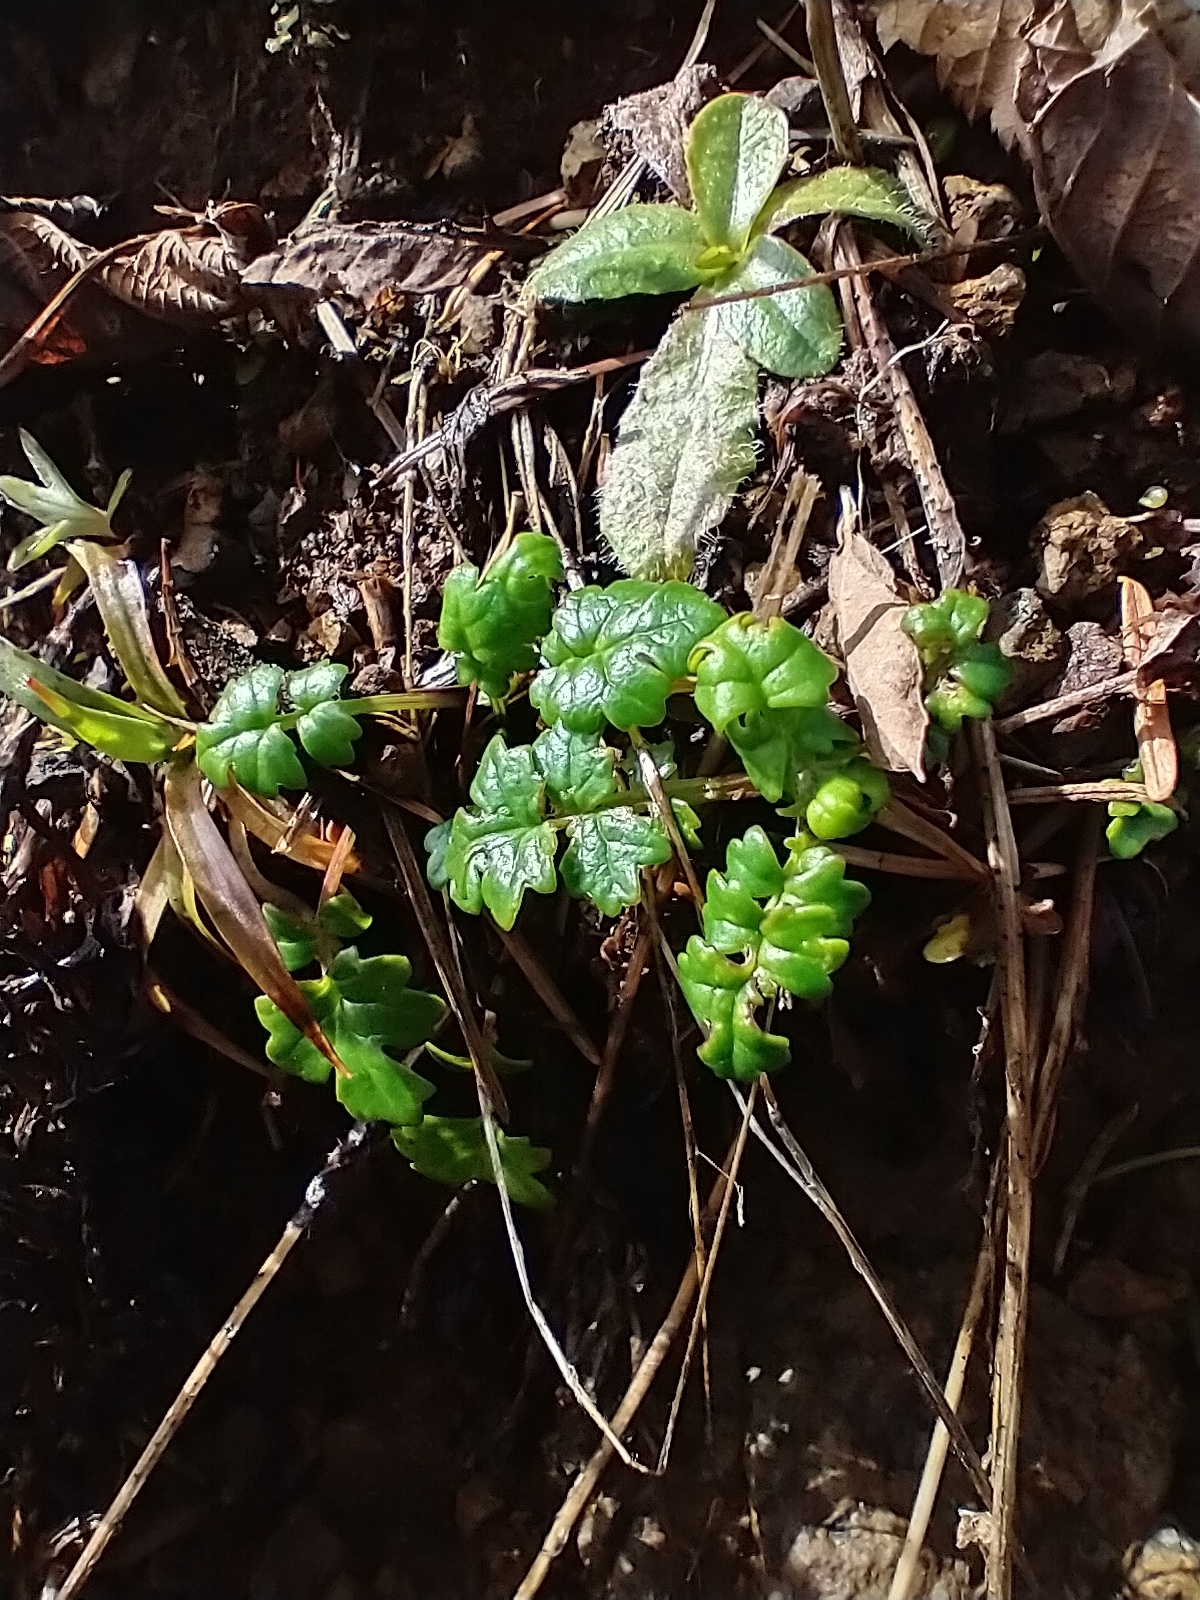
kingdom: Plantae
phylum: Tracheophyta
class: Magnoliopsida
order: Asterales
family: Asteraceae
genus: Packera
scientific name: Packera flettii
